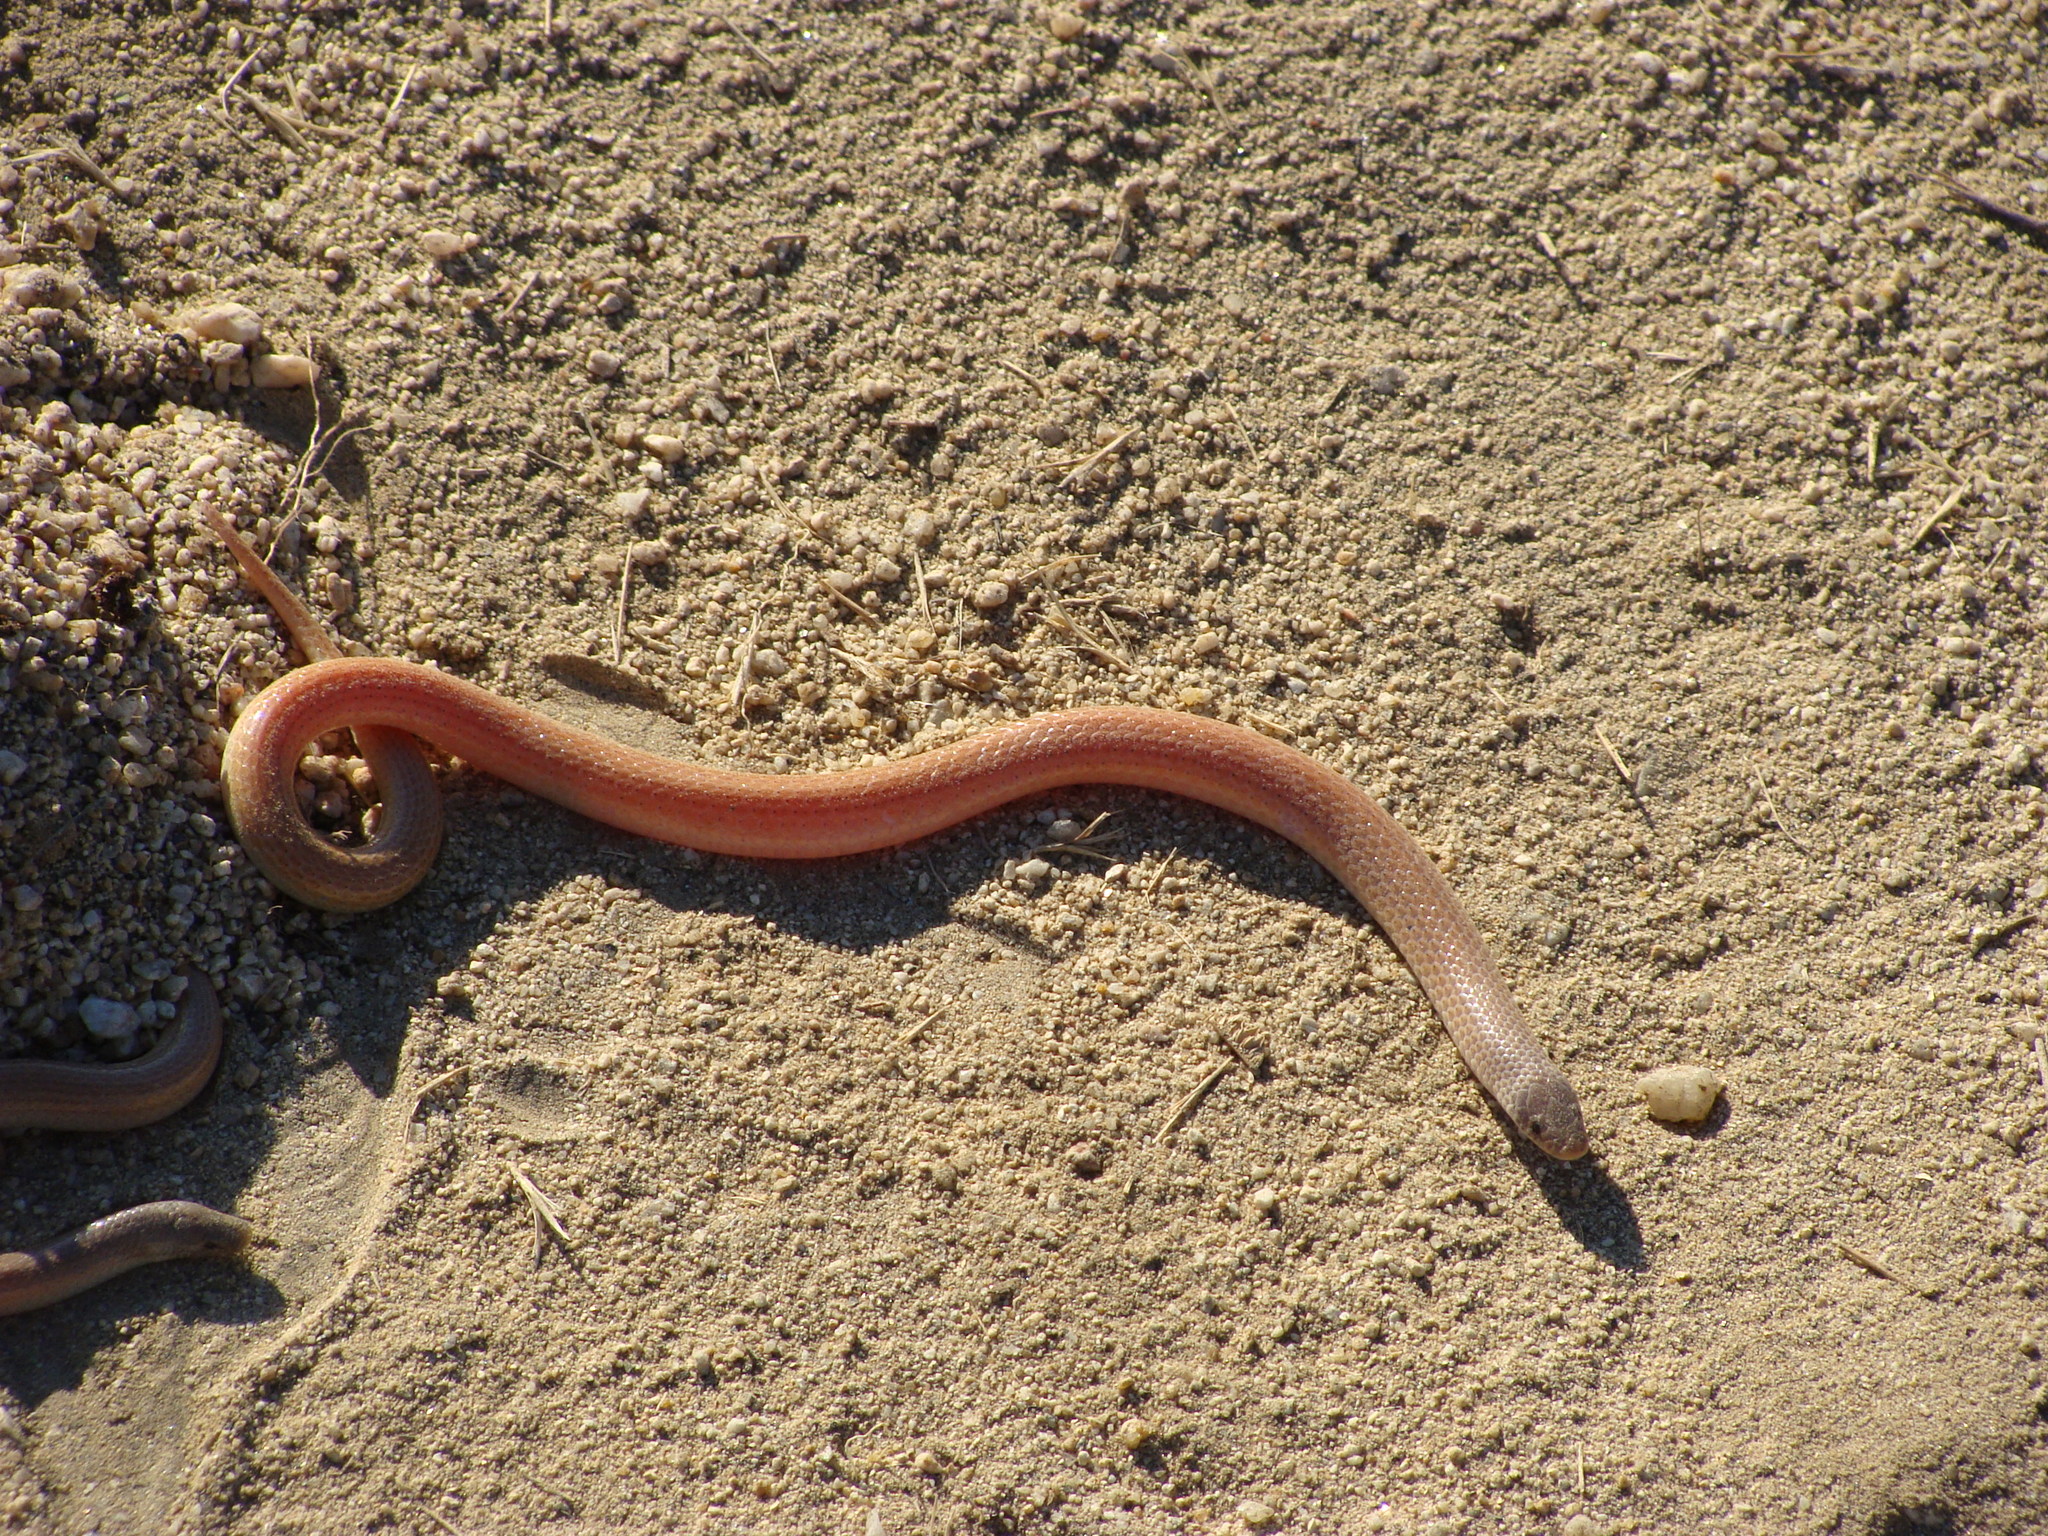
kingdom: Animalia
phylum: Chordata
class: Squamata
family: Colubridae
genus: Sonora
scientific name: Sonora straminea
